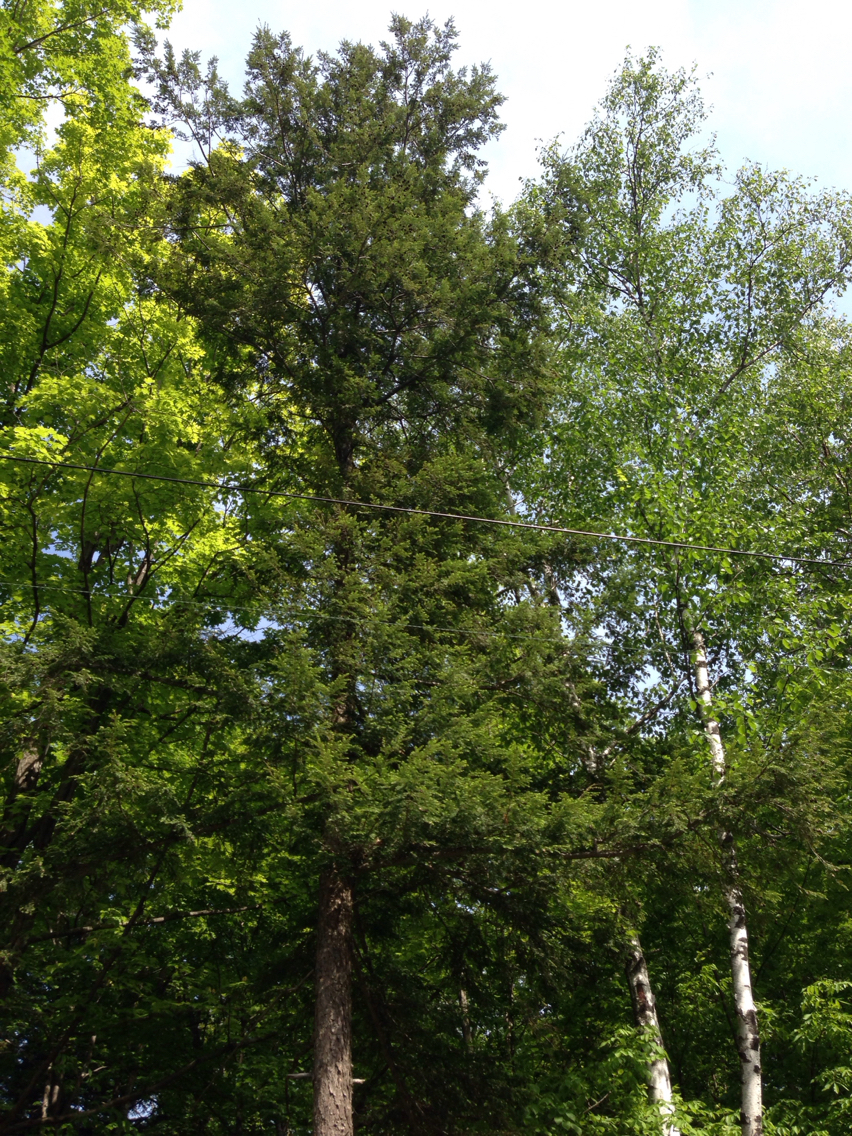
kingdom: Plantae
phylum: Tracheophyta
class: Pinopsida
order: Pinales
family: Pinaceae
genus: Tsuga
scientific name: Tsuga canadensis
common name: Eastern hemlock
